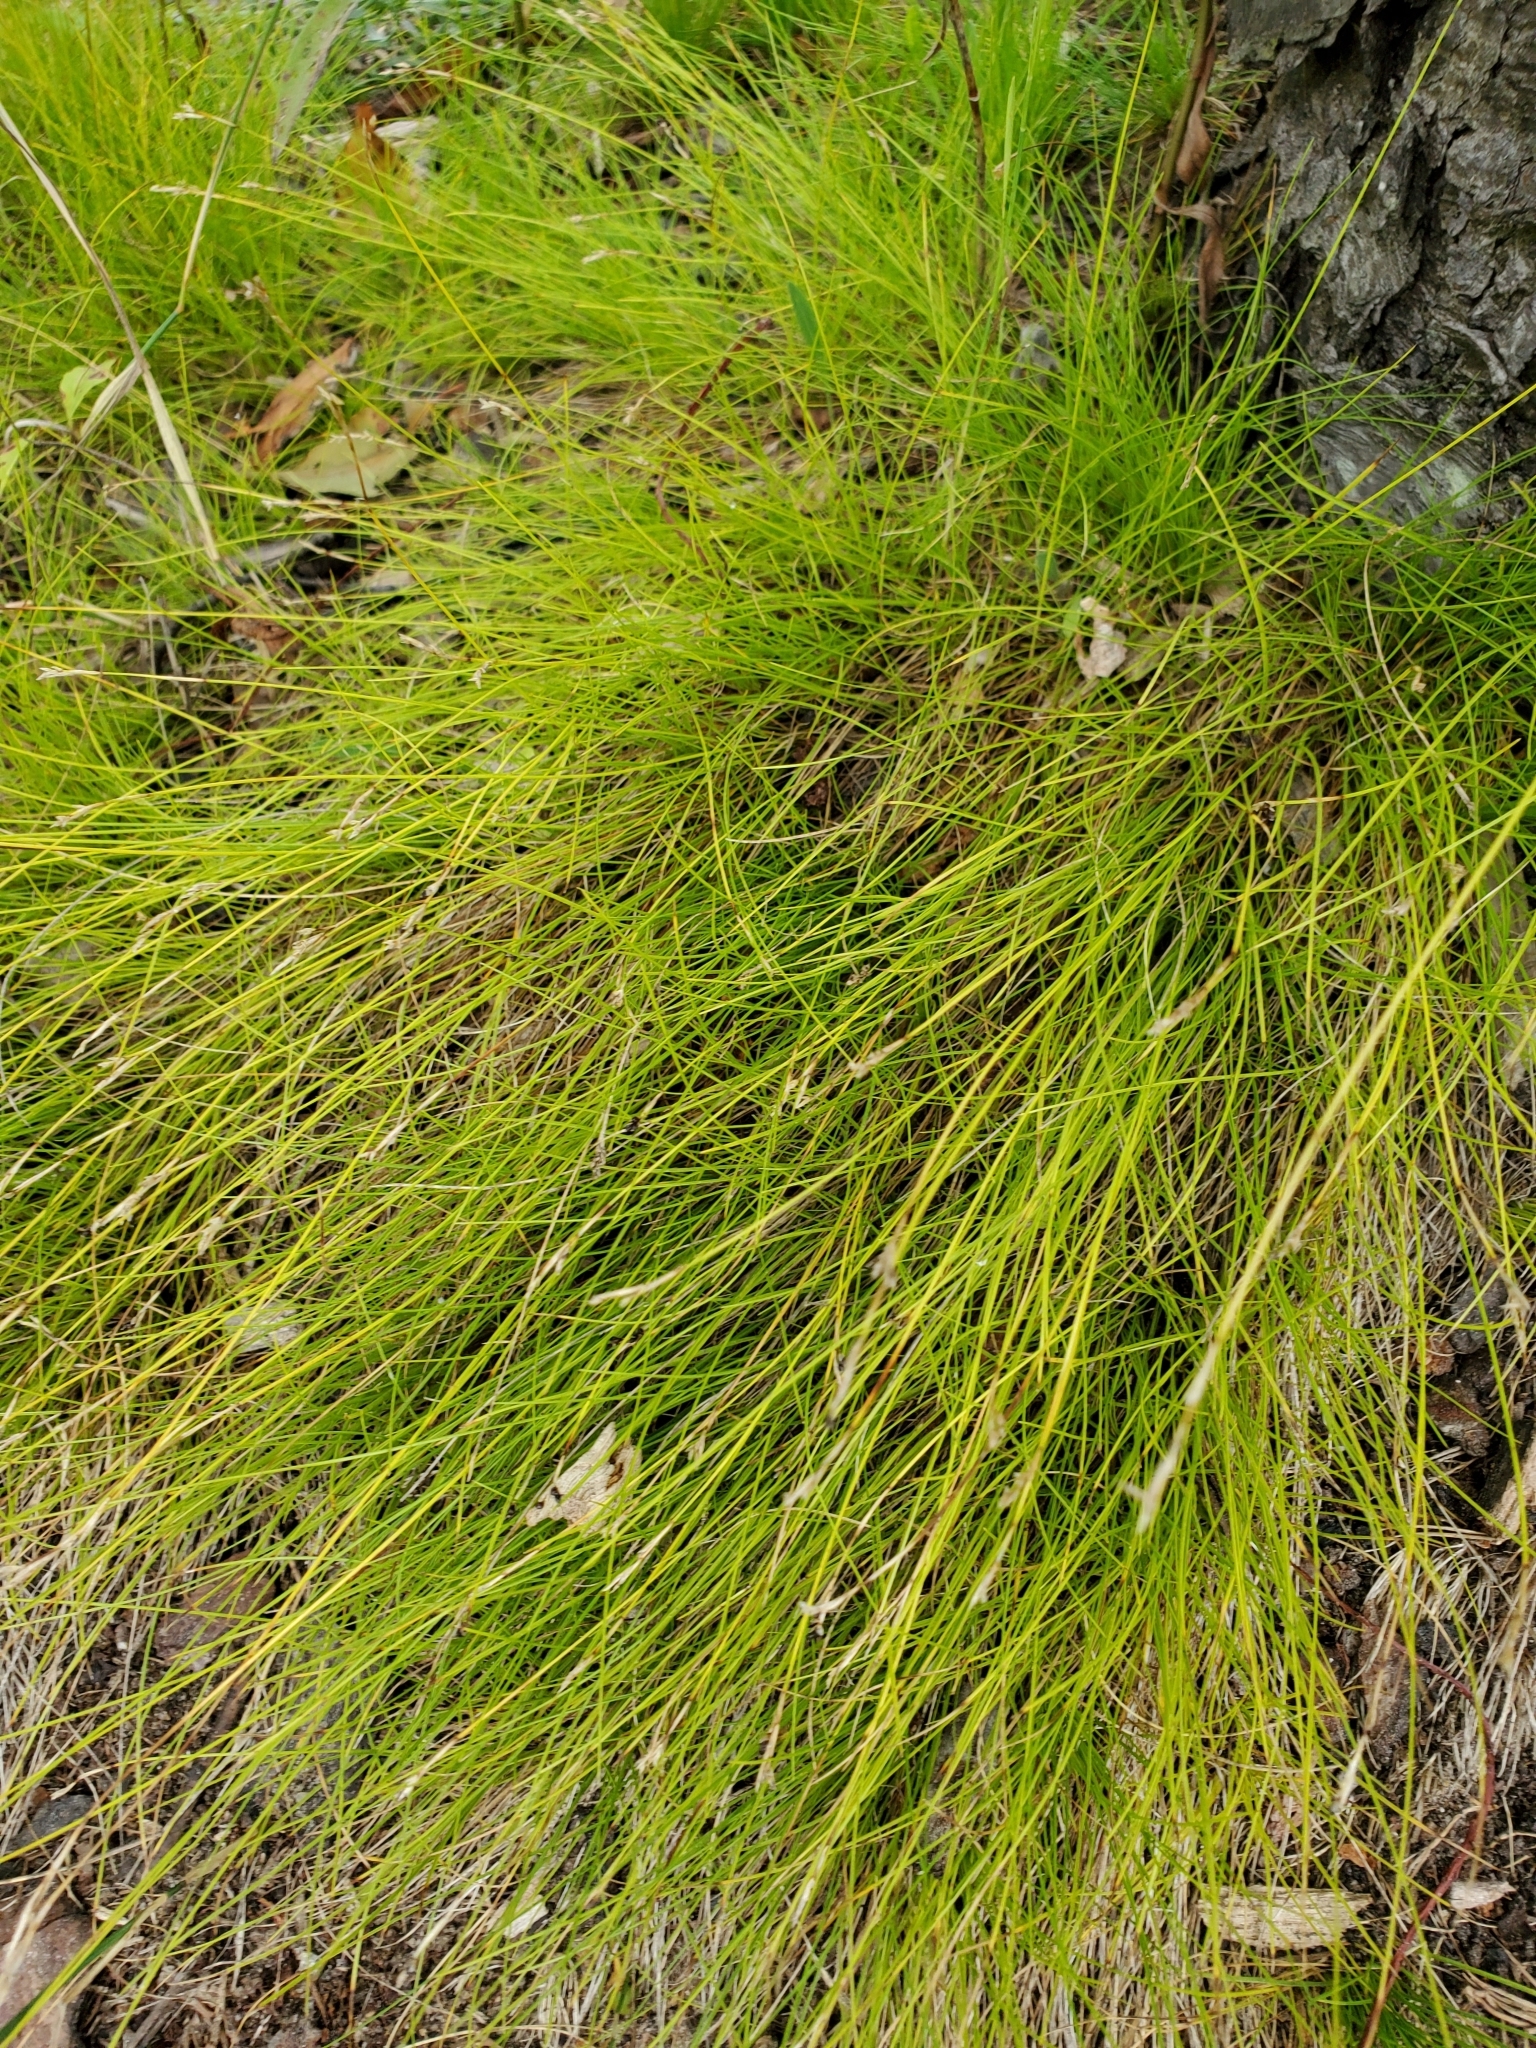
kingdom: Plantae
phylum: Tracheophyta
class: Liliopsida
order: Poales
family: Cyperaceae
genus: Carex
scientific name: Carex eburnea
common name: Bristle-leaved sedge
